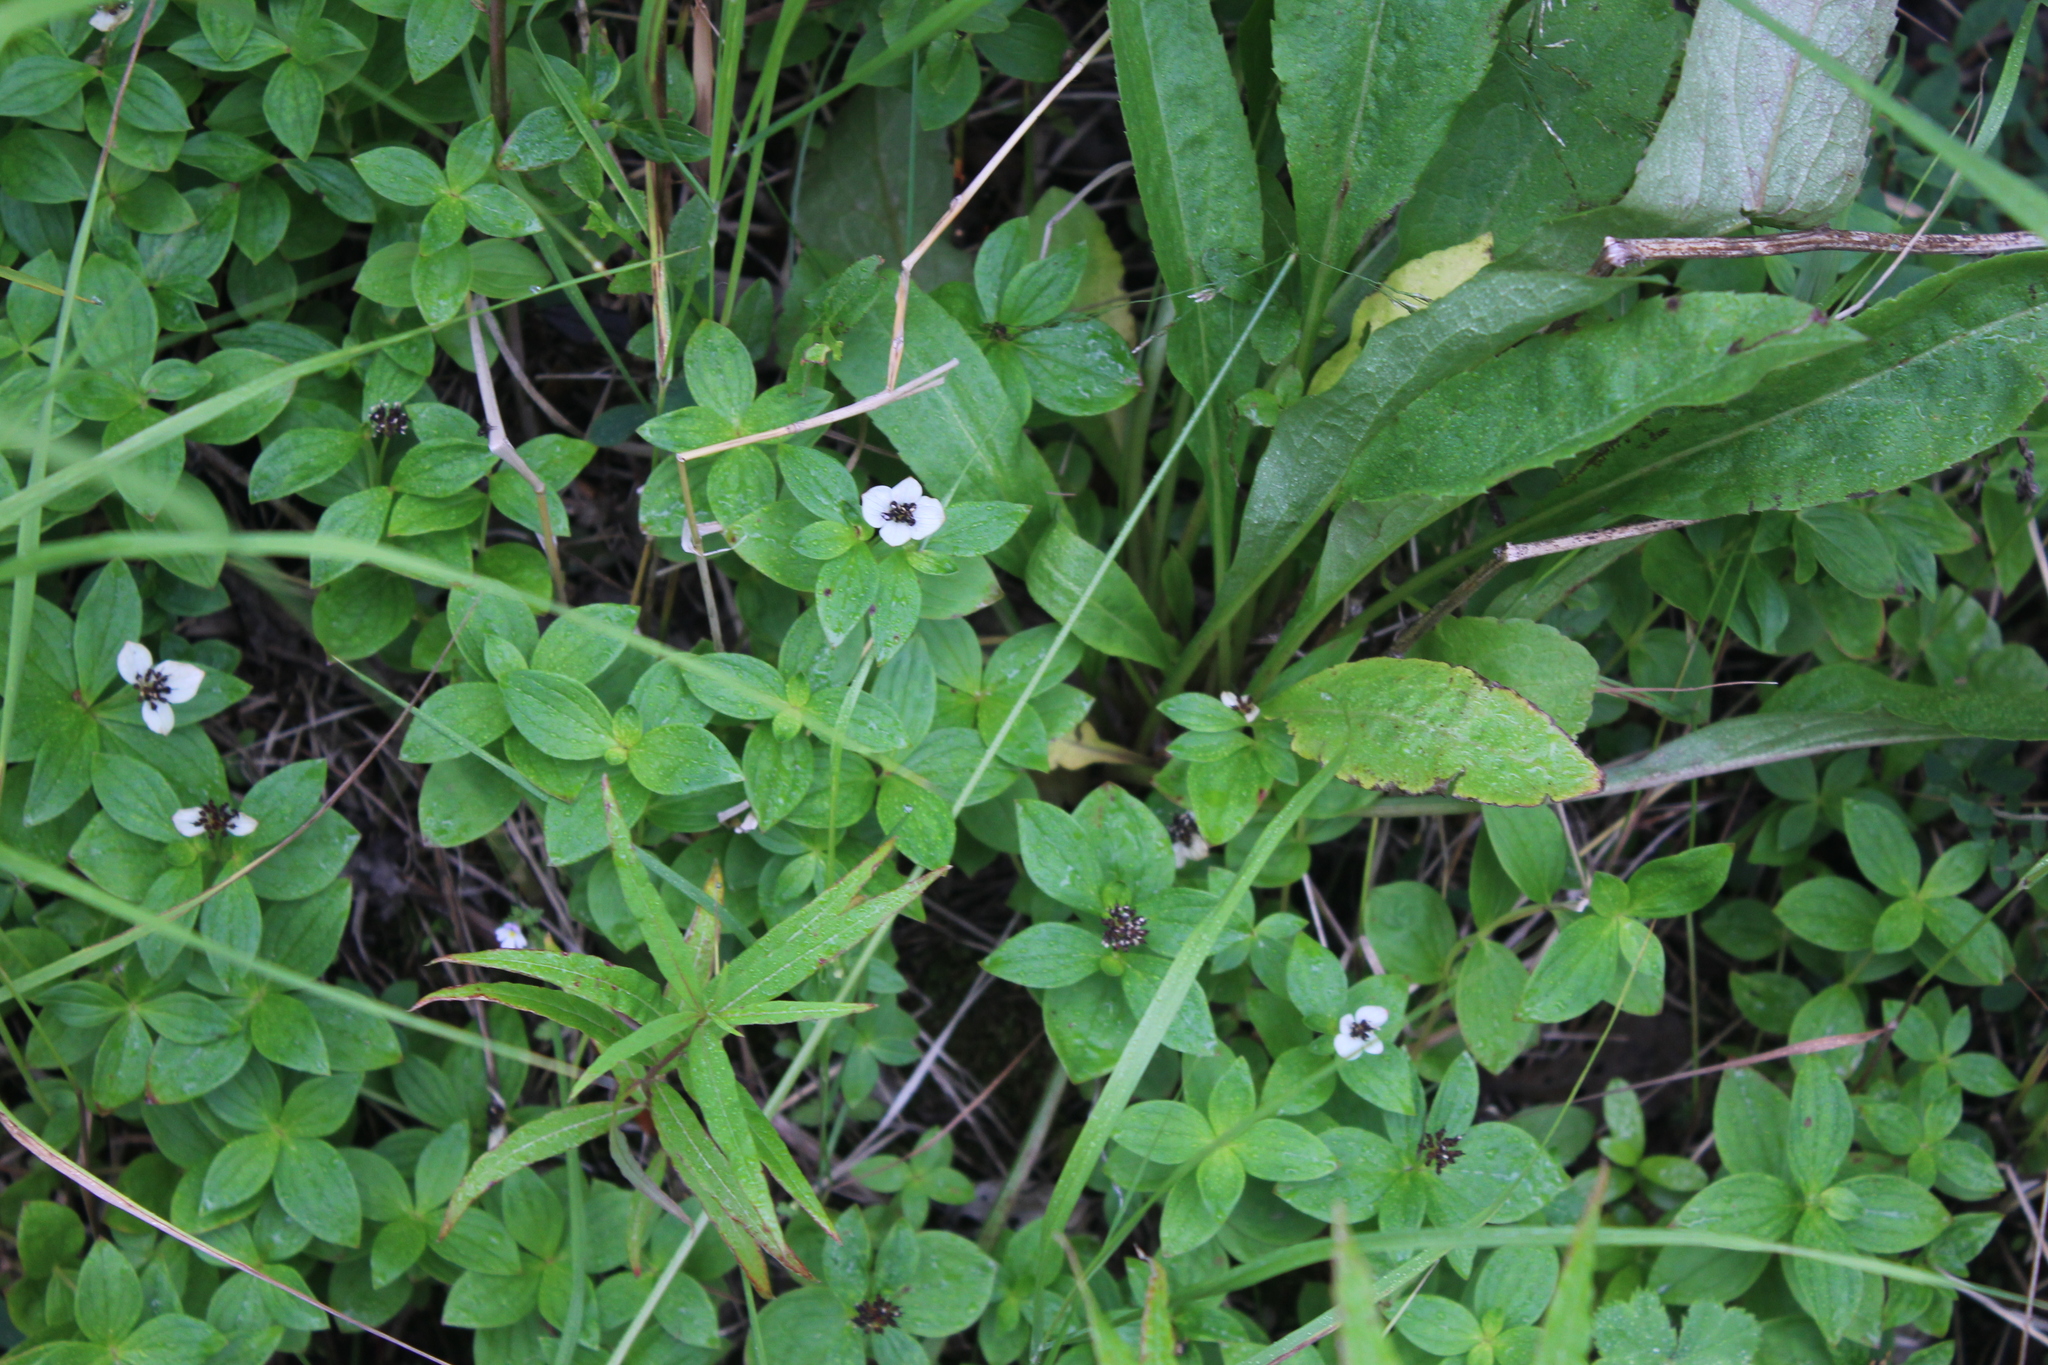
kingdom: Plantae
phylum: Tracheophyta
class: Magnoliopsida
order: Cornales
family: Cornaceae
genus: Cornus
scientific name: Cornus suecica
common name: Dwarf cornel
